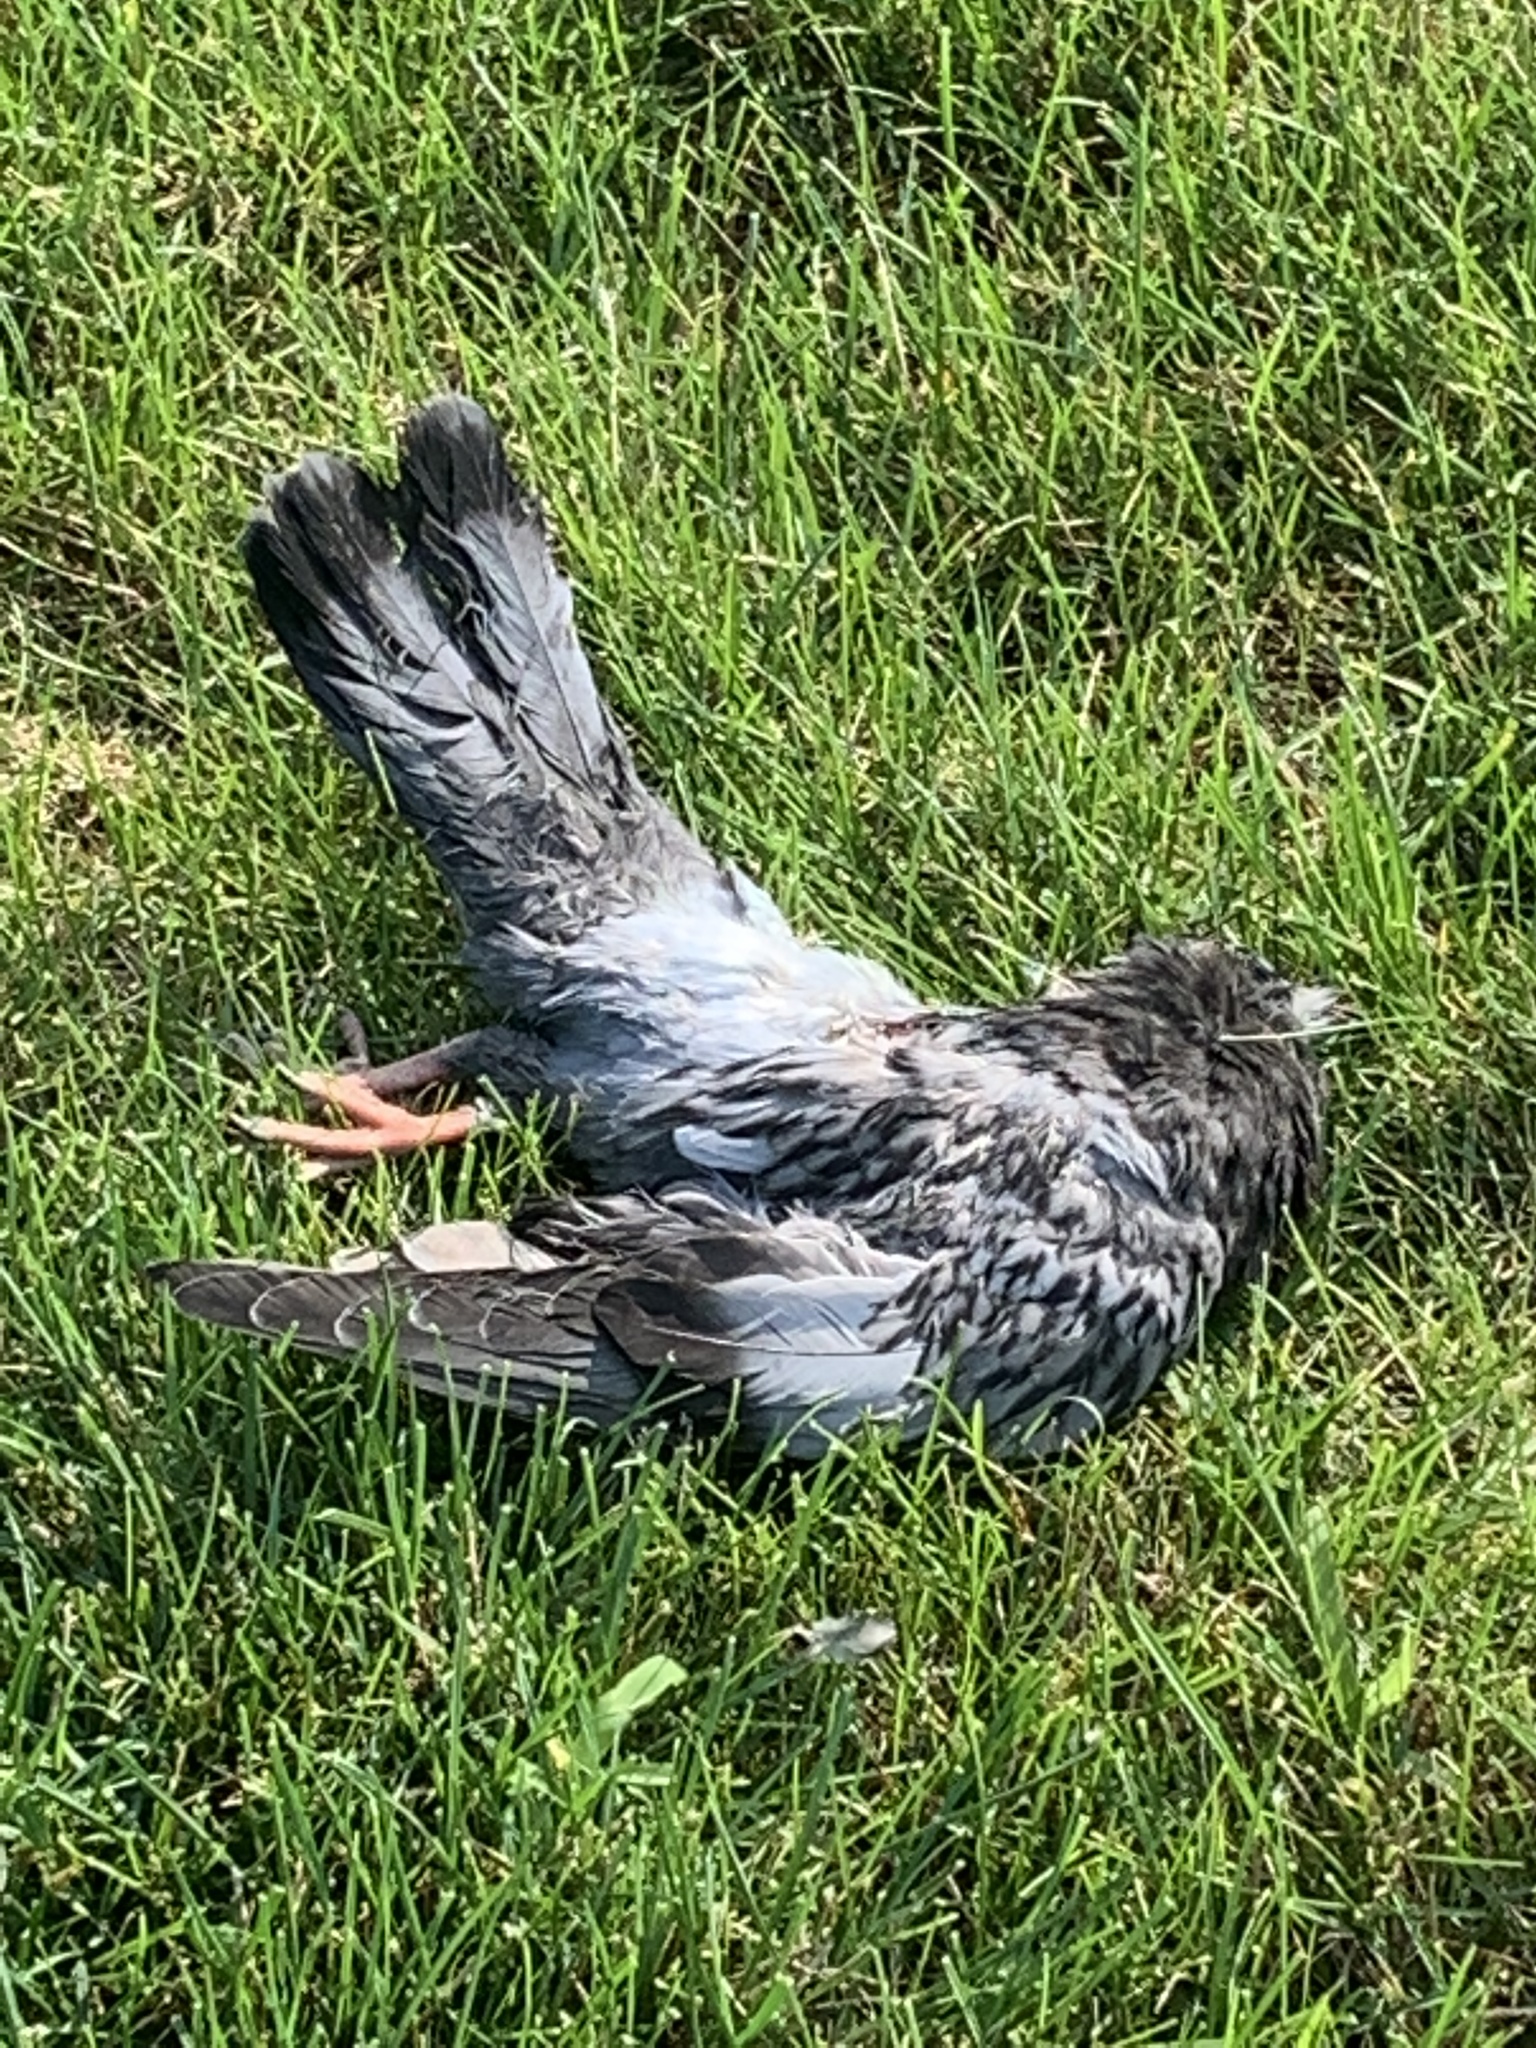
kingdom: Animalia
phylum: Chordata
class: Aves
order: Columbiformes
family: Columbidae
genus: Columba
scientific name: Columba livia
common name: Rock pigeon
